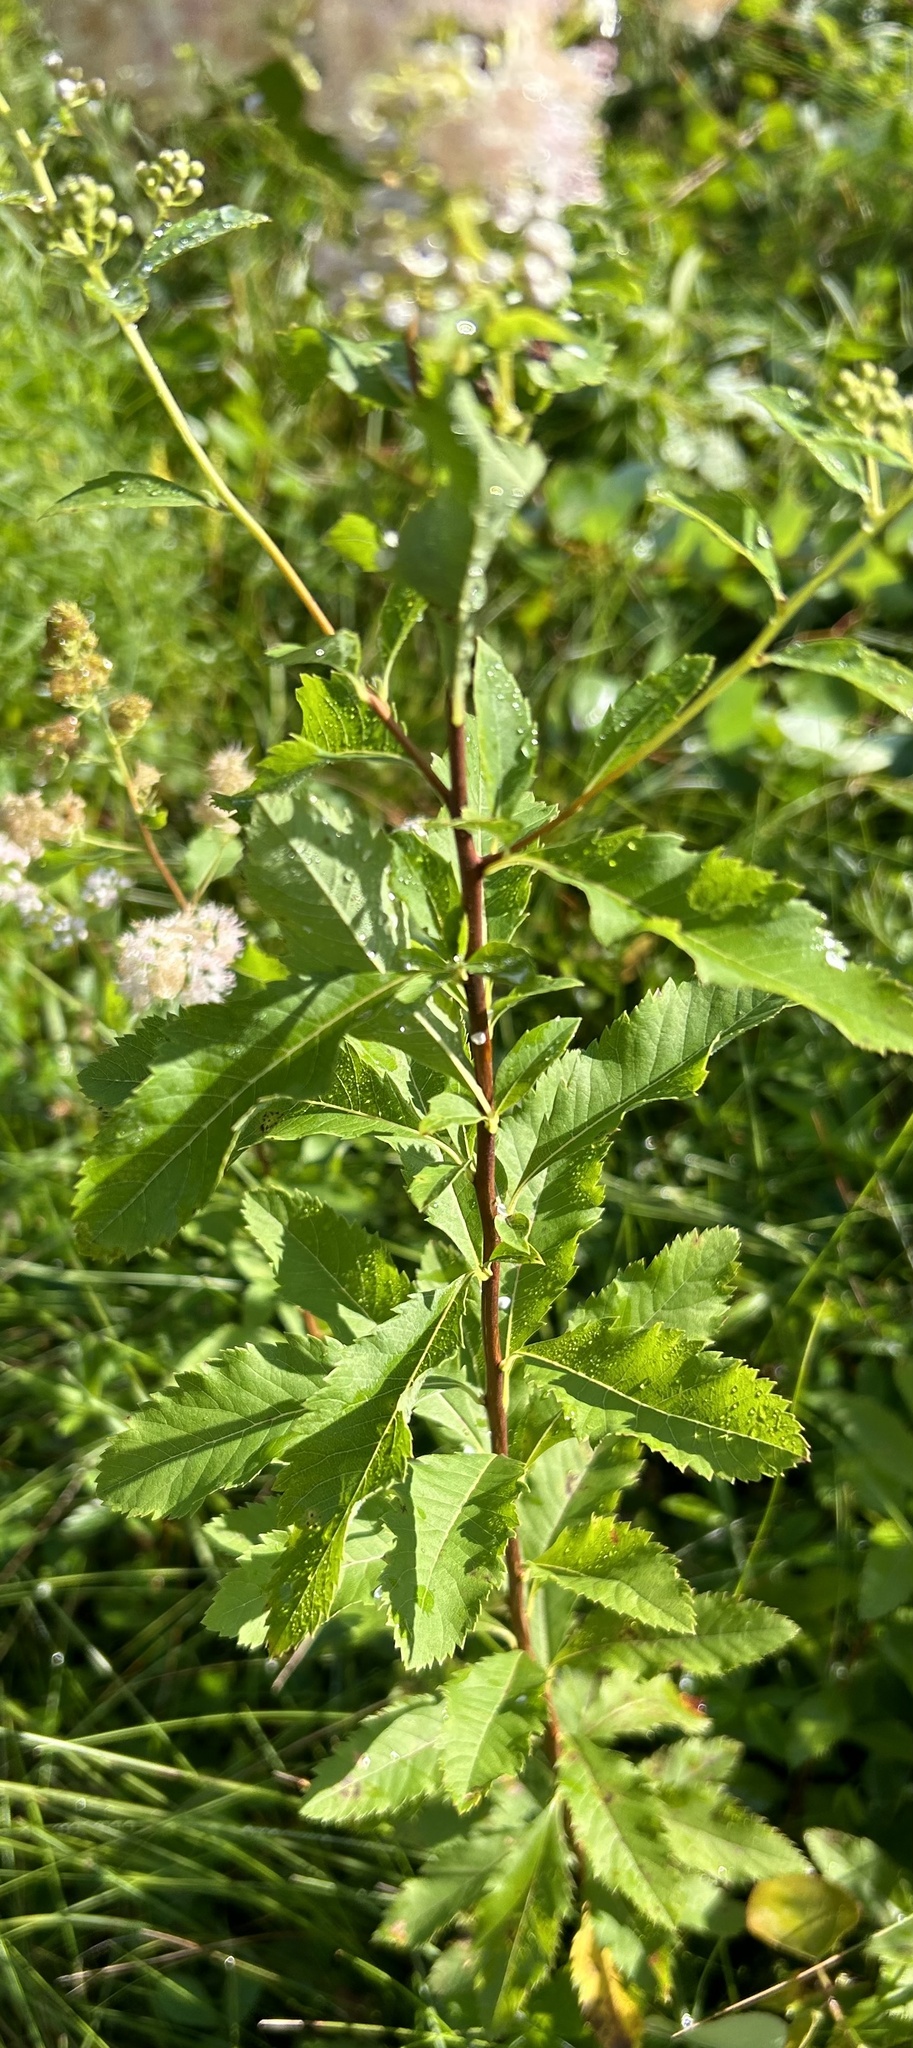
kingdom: Plantae
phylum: Tracheophyta
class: Magnoliopsida
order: Rosales
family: Rosaceae
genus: Spiraea
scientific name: Spiraea alba
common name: Pale bridewort
